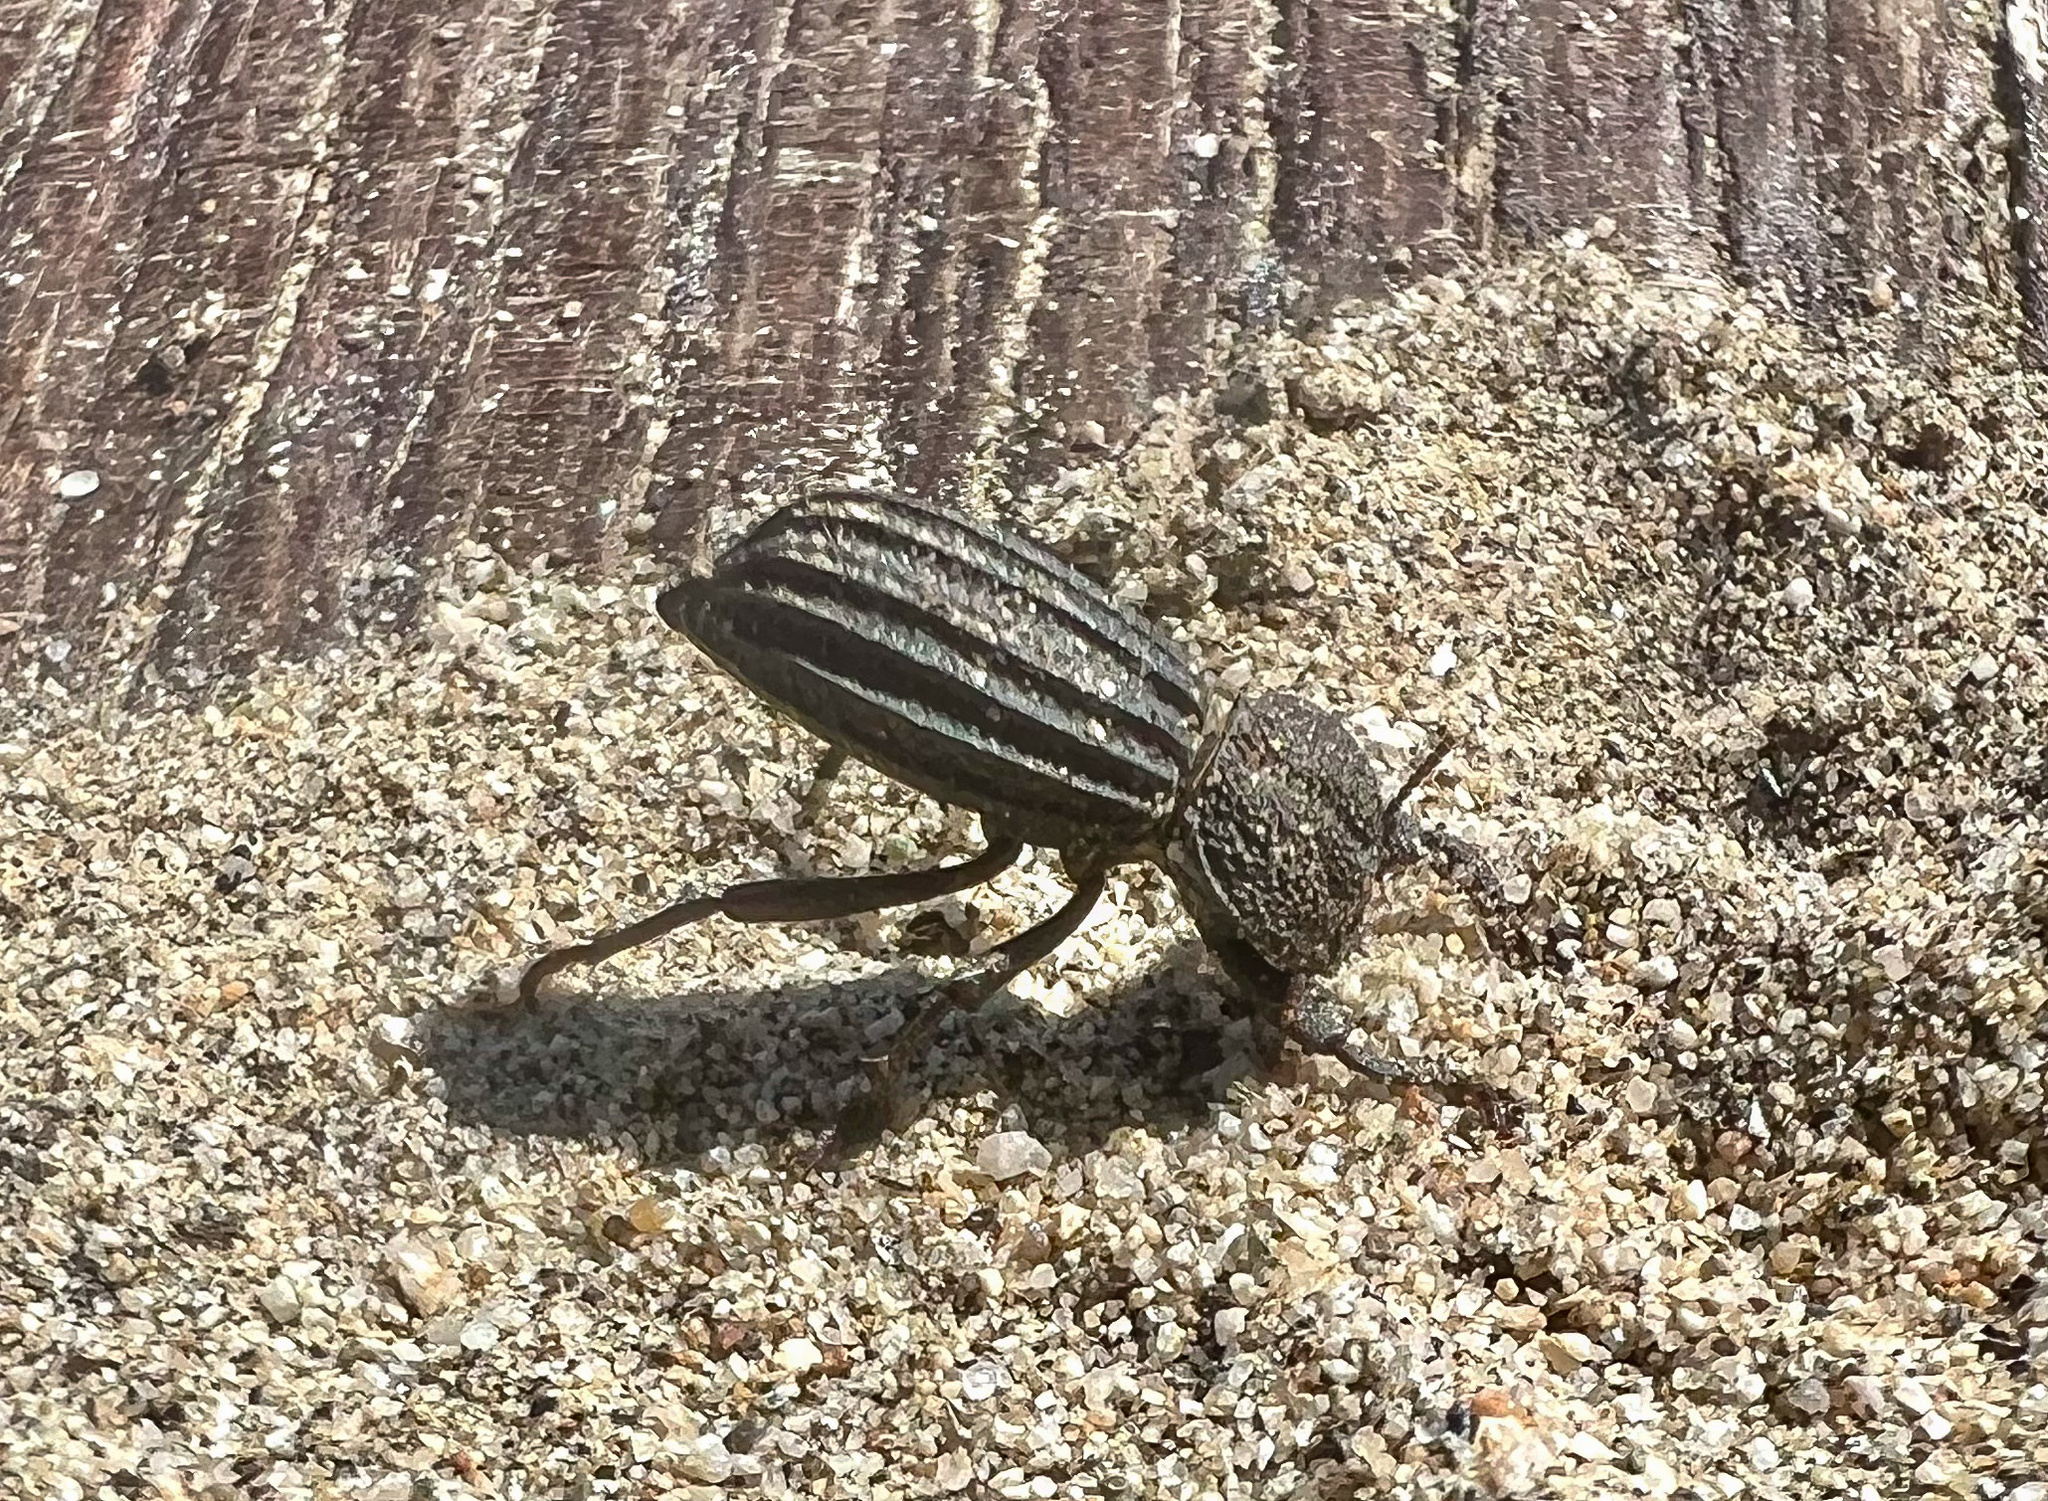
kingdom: Animalia
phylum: Arthropoda
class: Insecta
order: Coleoptera
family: Tenebrionidae
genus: Trogloderus
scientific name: Trogloderus
